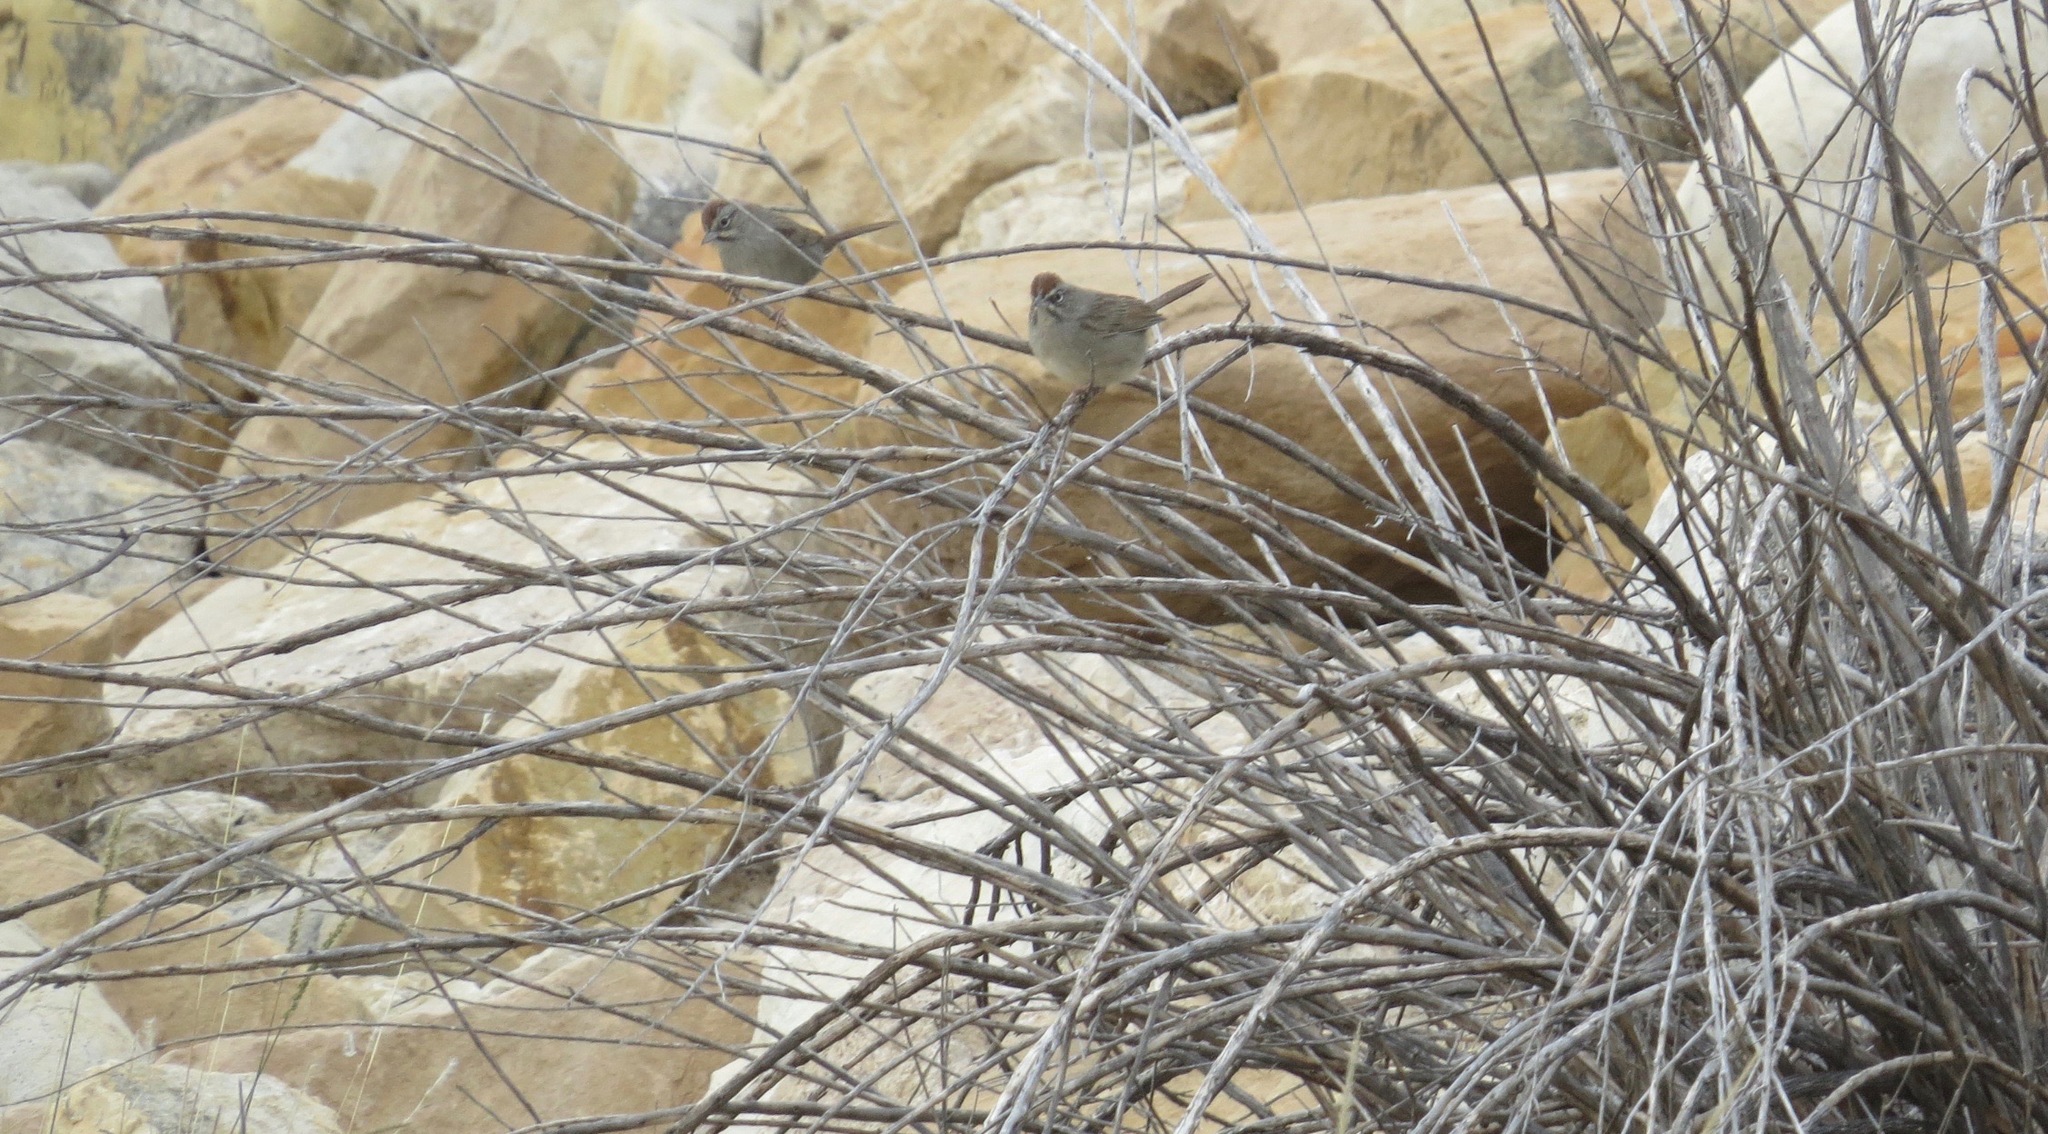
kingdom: Animalia
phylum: Chordata
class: Aves
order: Passeriformes
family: Passerellidae
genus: Aimophila
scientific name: Aimophila ruficeps
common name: Rufous-crowned sparrow
